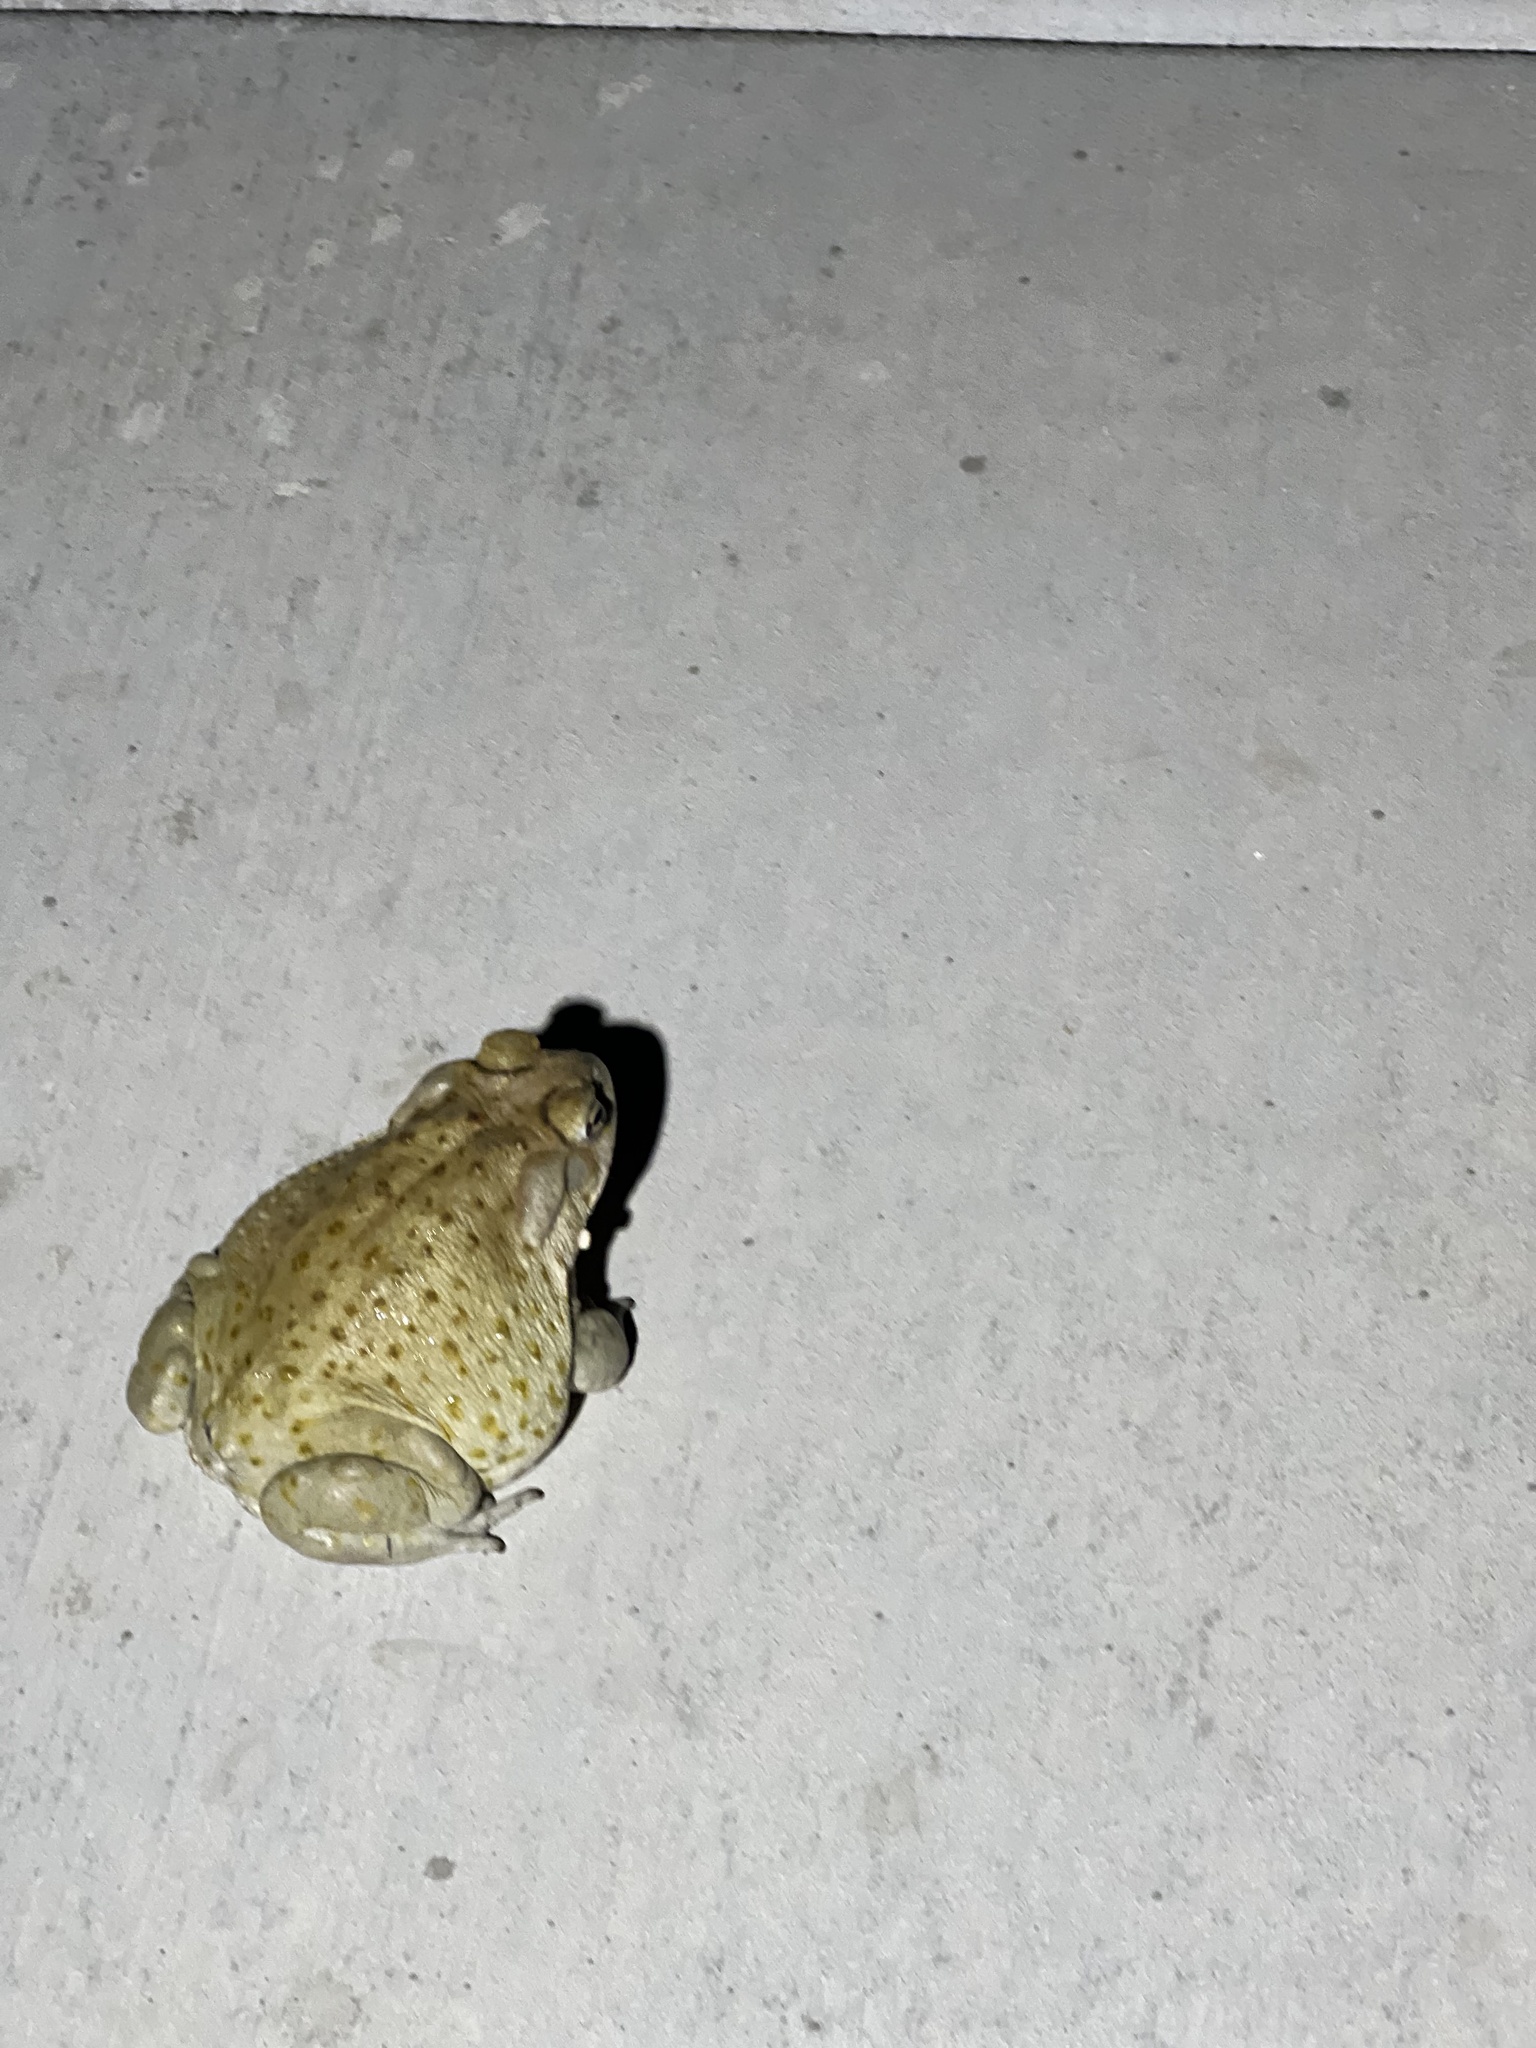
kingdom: Animalia
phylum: Chordata
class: Amphibia
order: Anura
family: Bufonidae
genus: Incilius
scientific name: Incilius alvarius
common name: Sonoran desert toad
